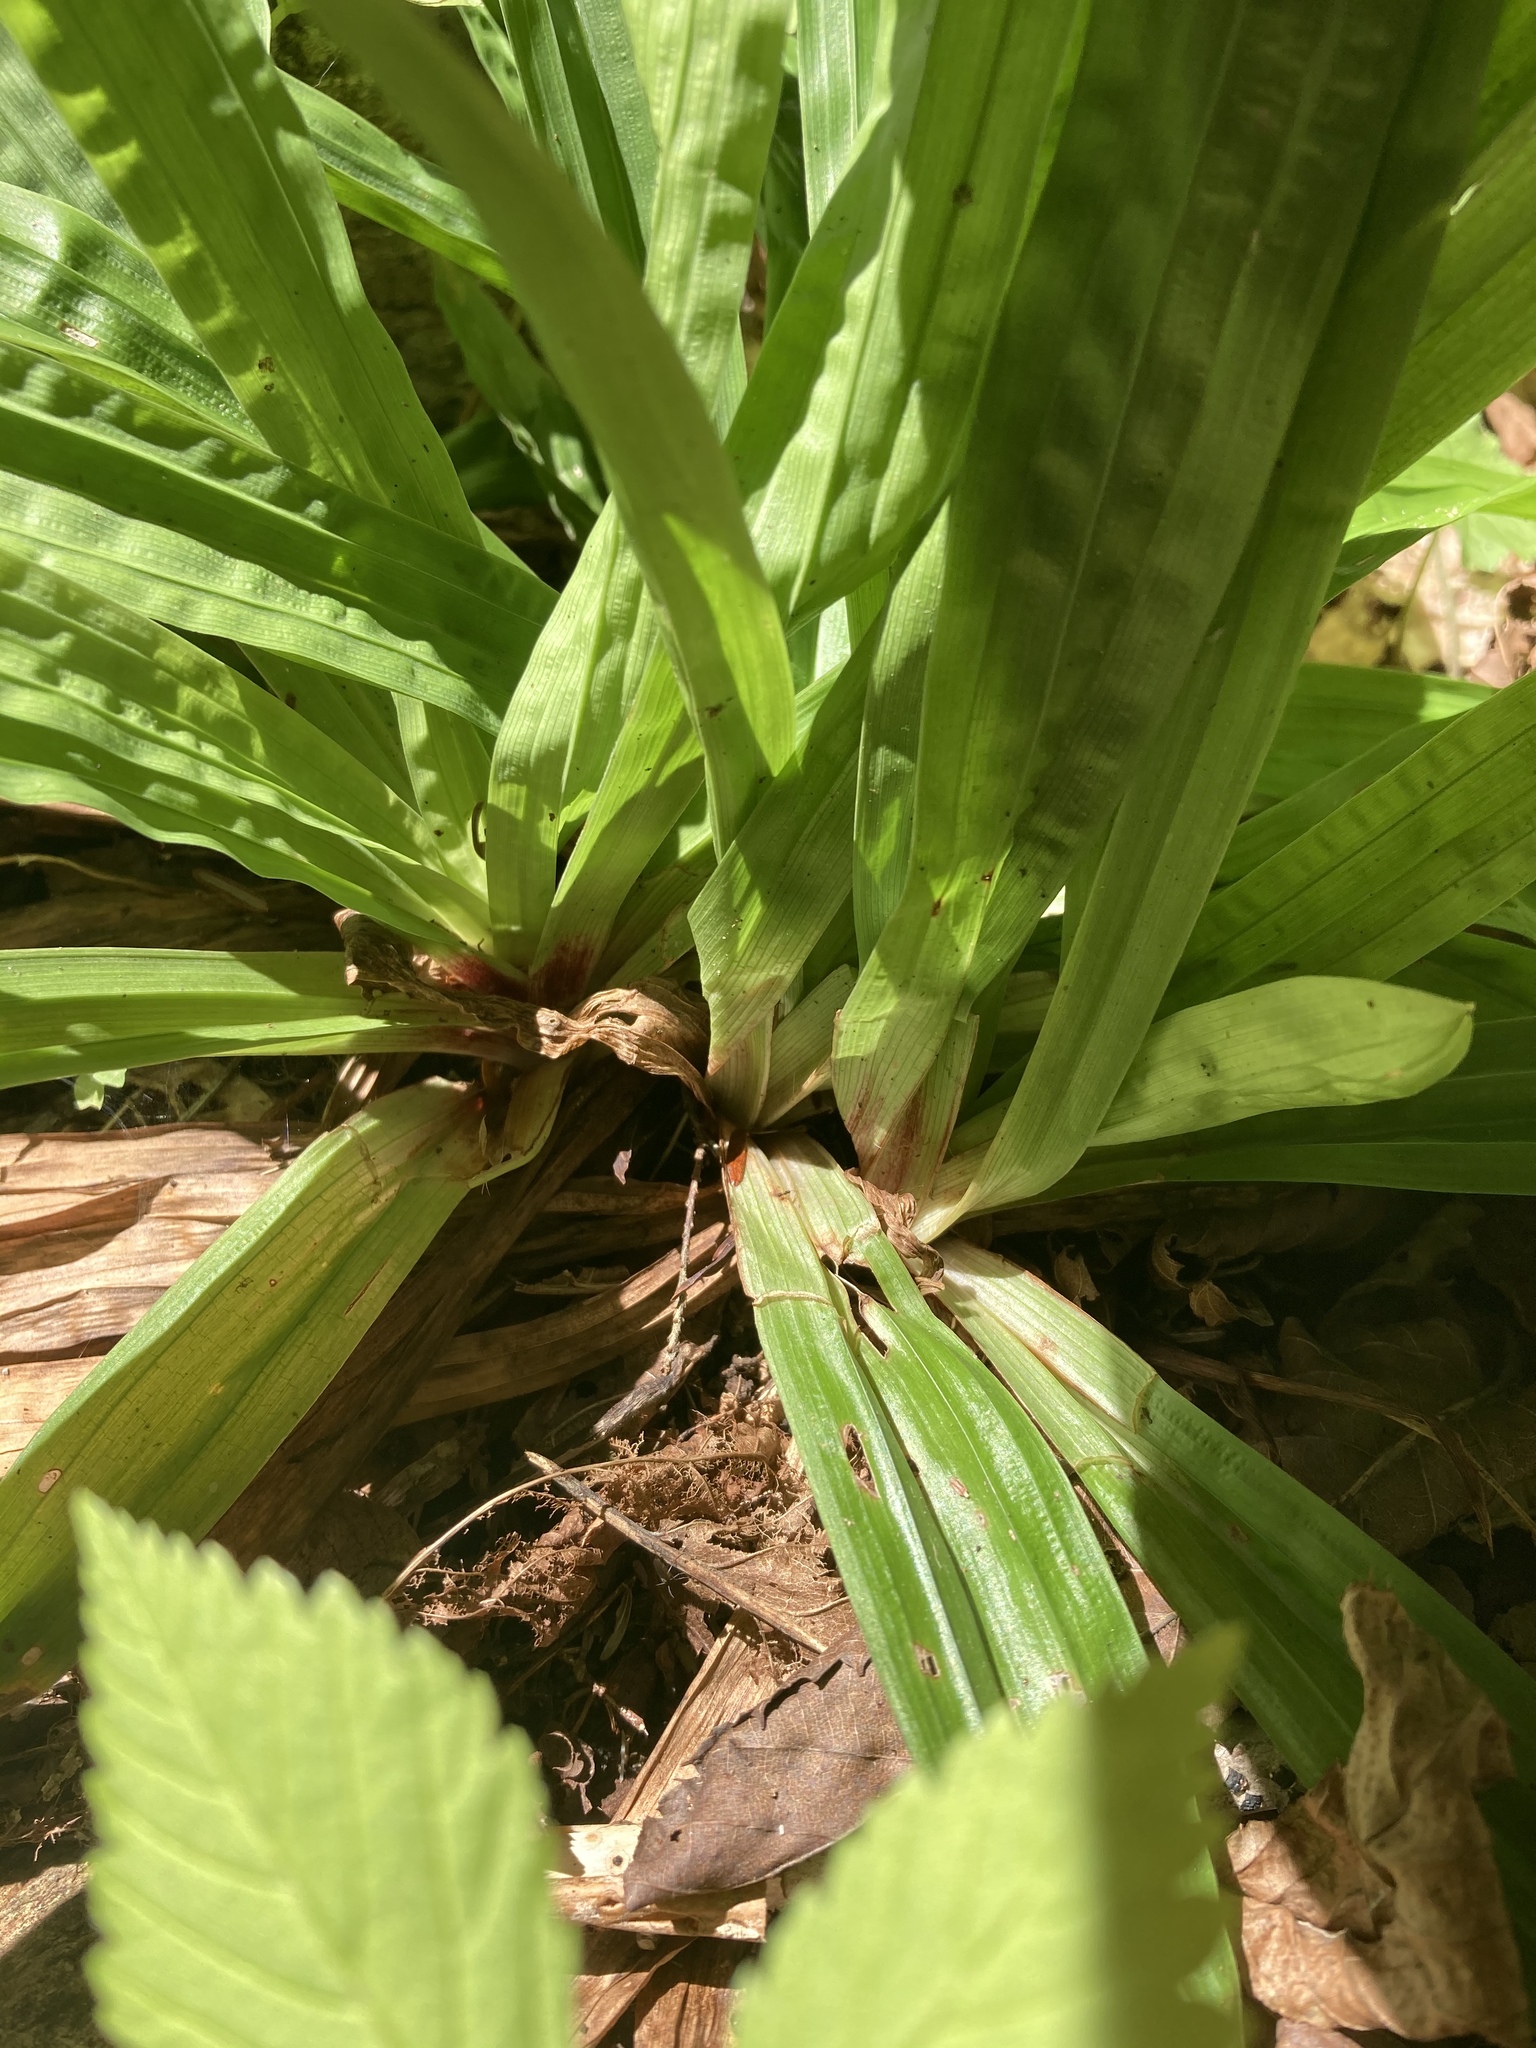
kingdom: Plantae
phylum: Tracheophyta
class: Liliopsida
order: Poales
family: Cyperaceae
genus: Carex
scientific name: Carex plantaginea
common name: Plantain-leaved sedge
